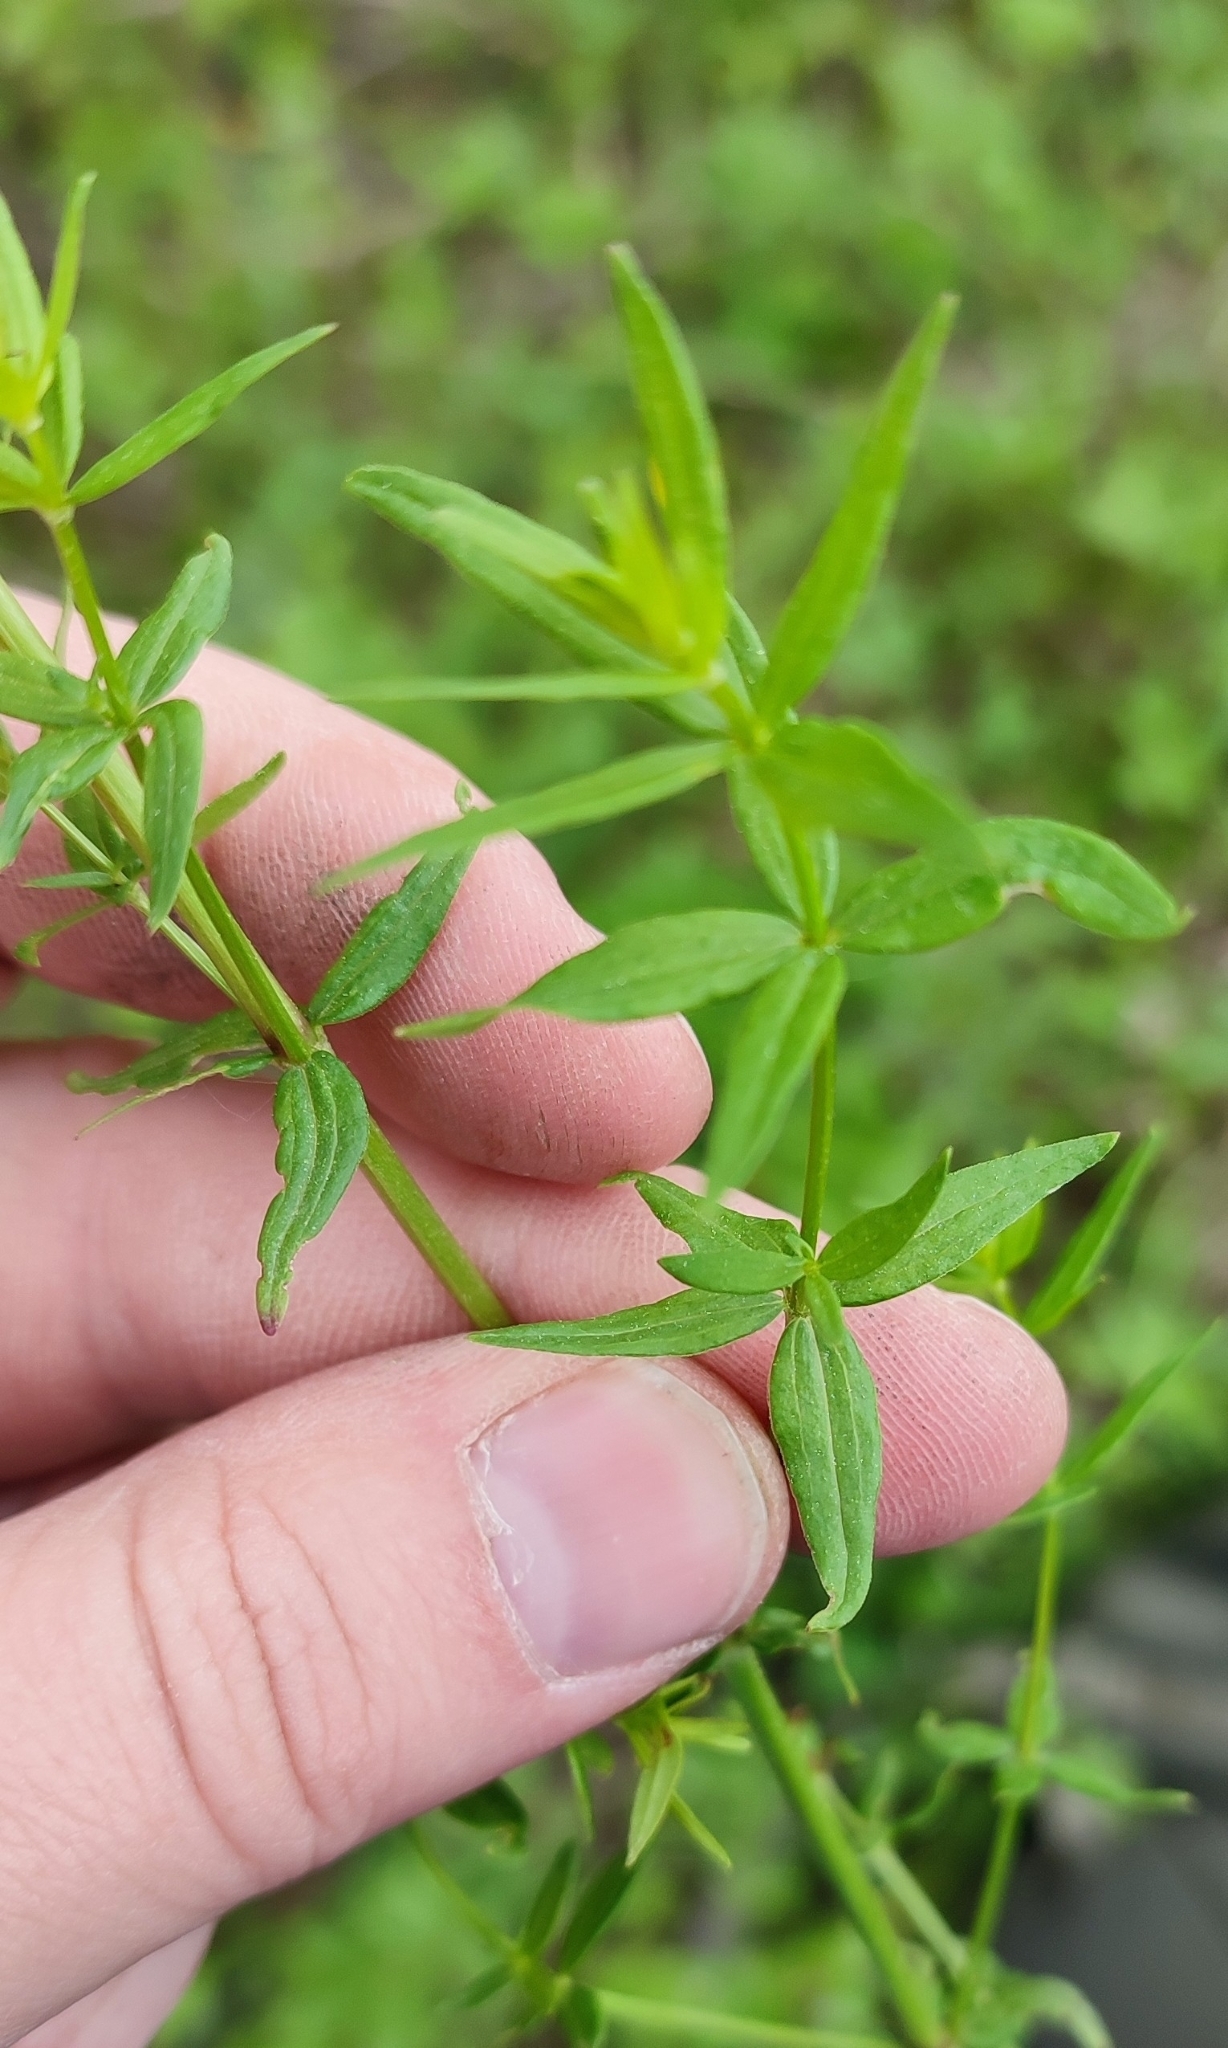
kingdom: Plantae
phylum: Tracheophyta
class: Magnoliopsida
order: Gentianales
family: Rubiaceae
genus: Galium
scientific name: Galium boreale
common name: Northern bedstraw
